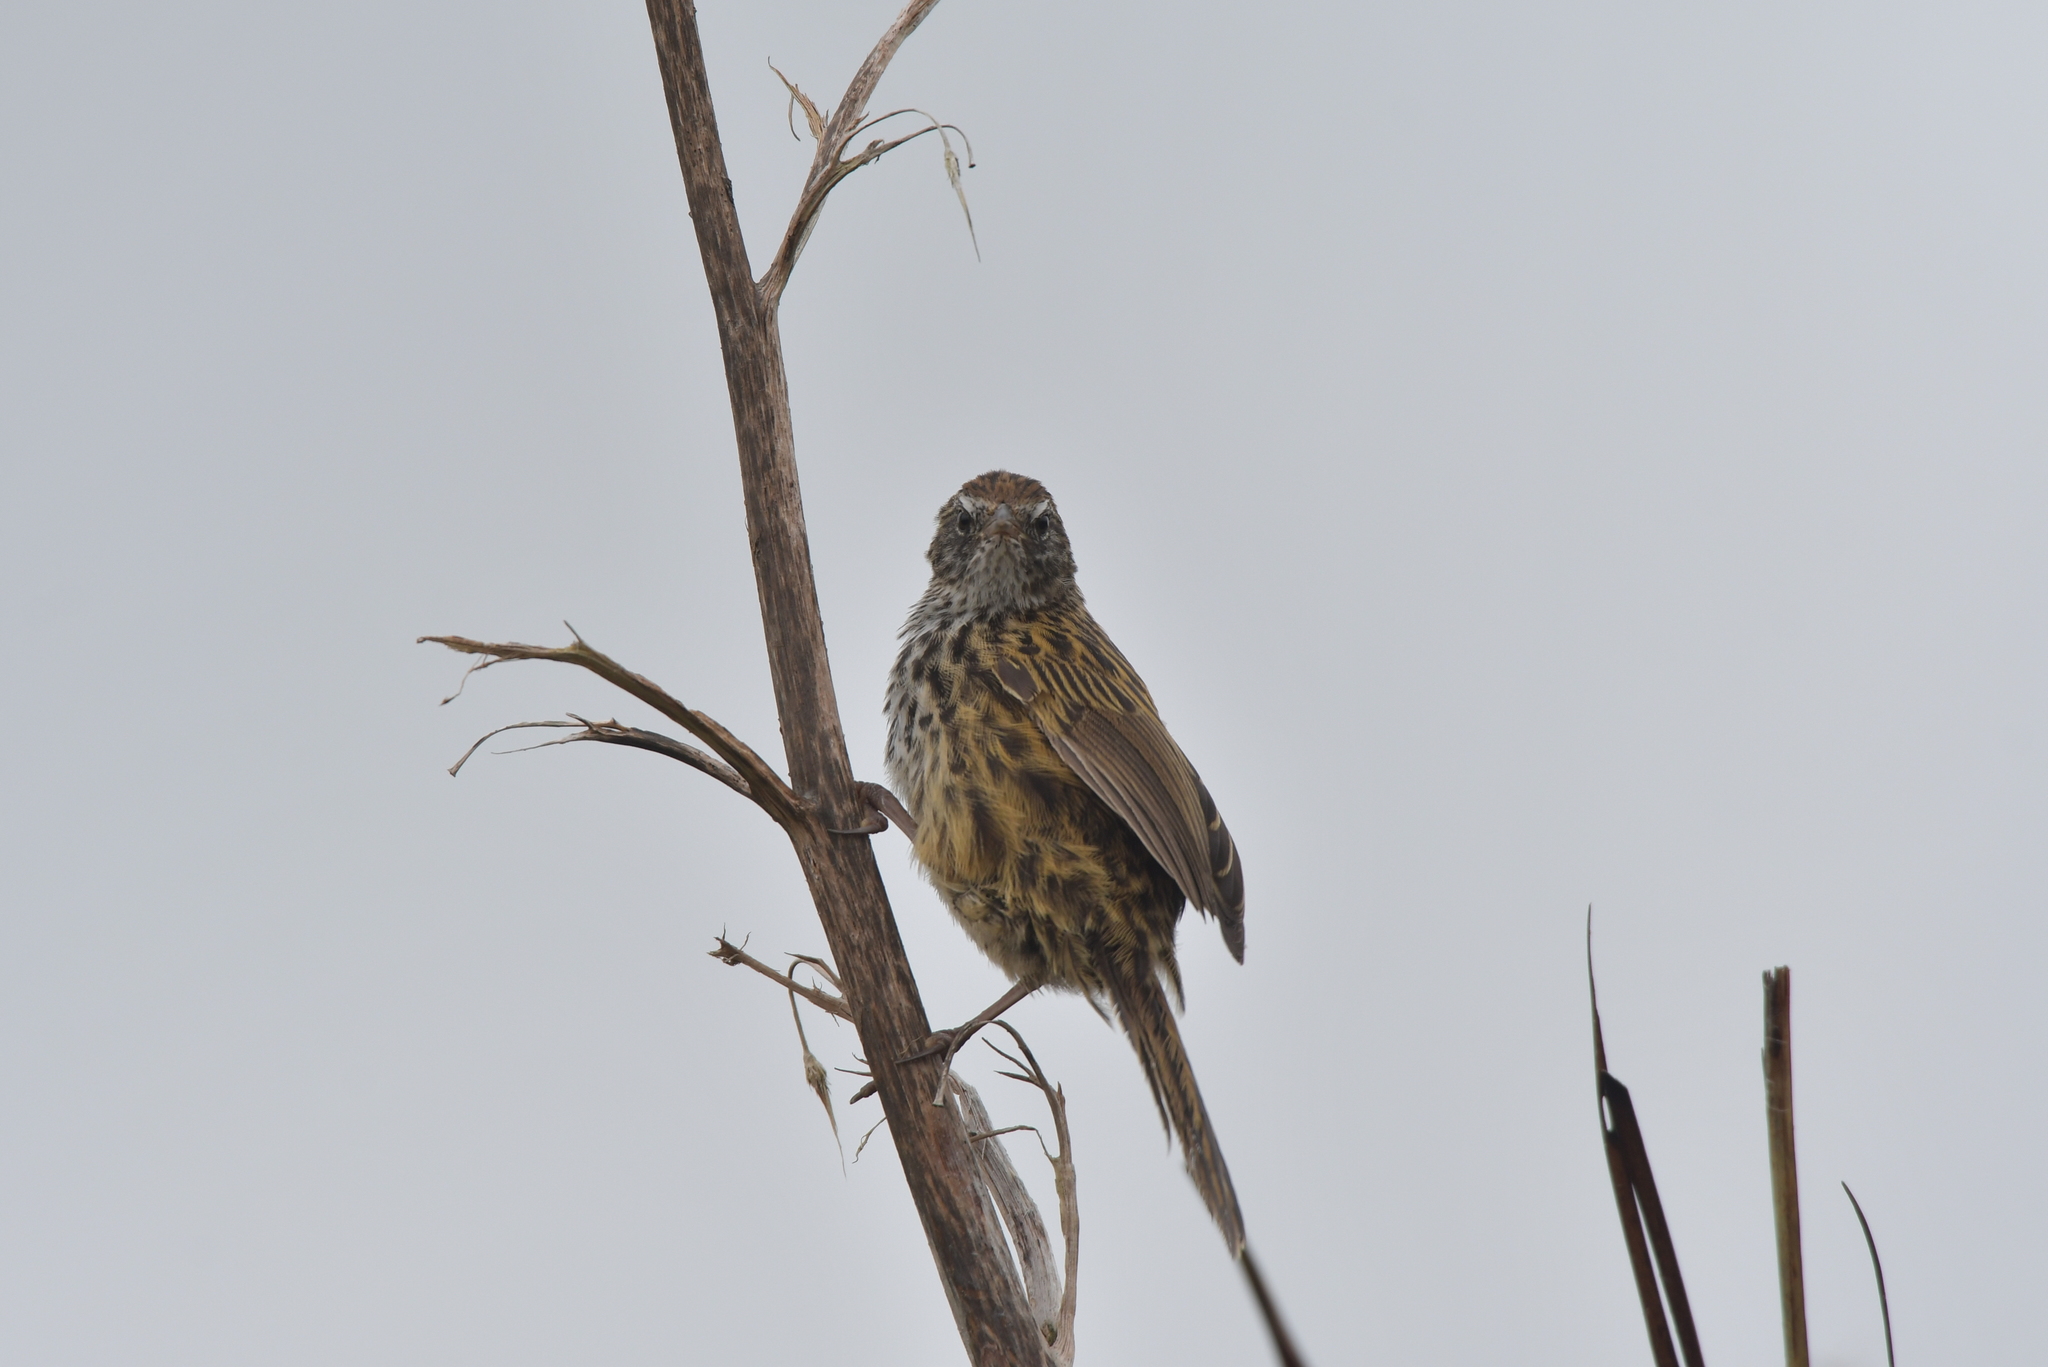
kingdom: Animalia
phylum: Chordata
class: Aves
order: Passeriformes
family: Locustellidae
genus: Poodytes
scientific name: Poodytes punctatus
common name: New zealand fernbird
